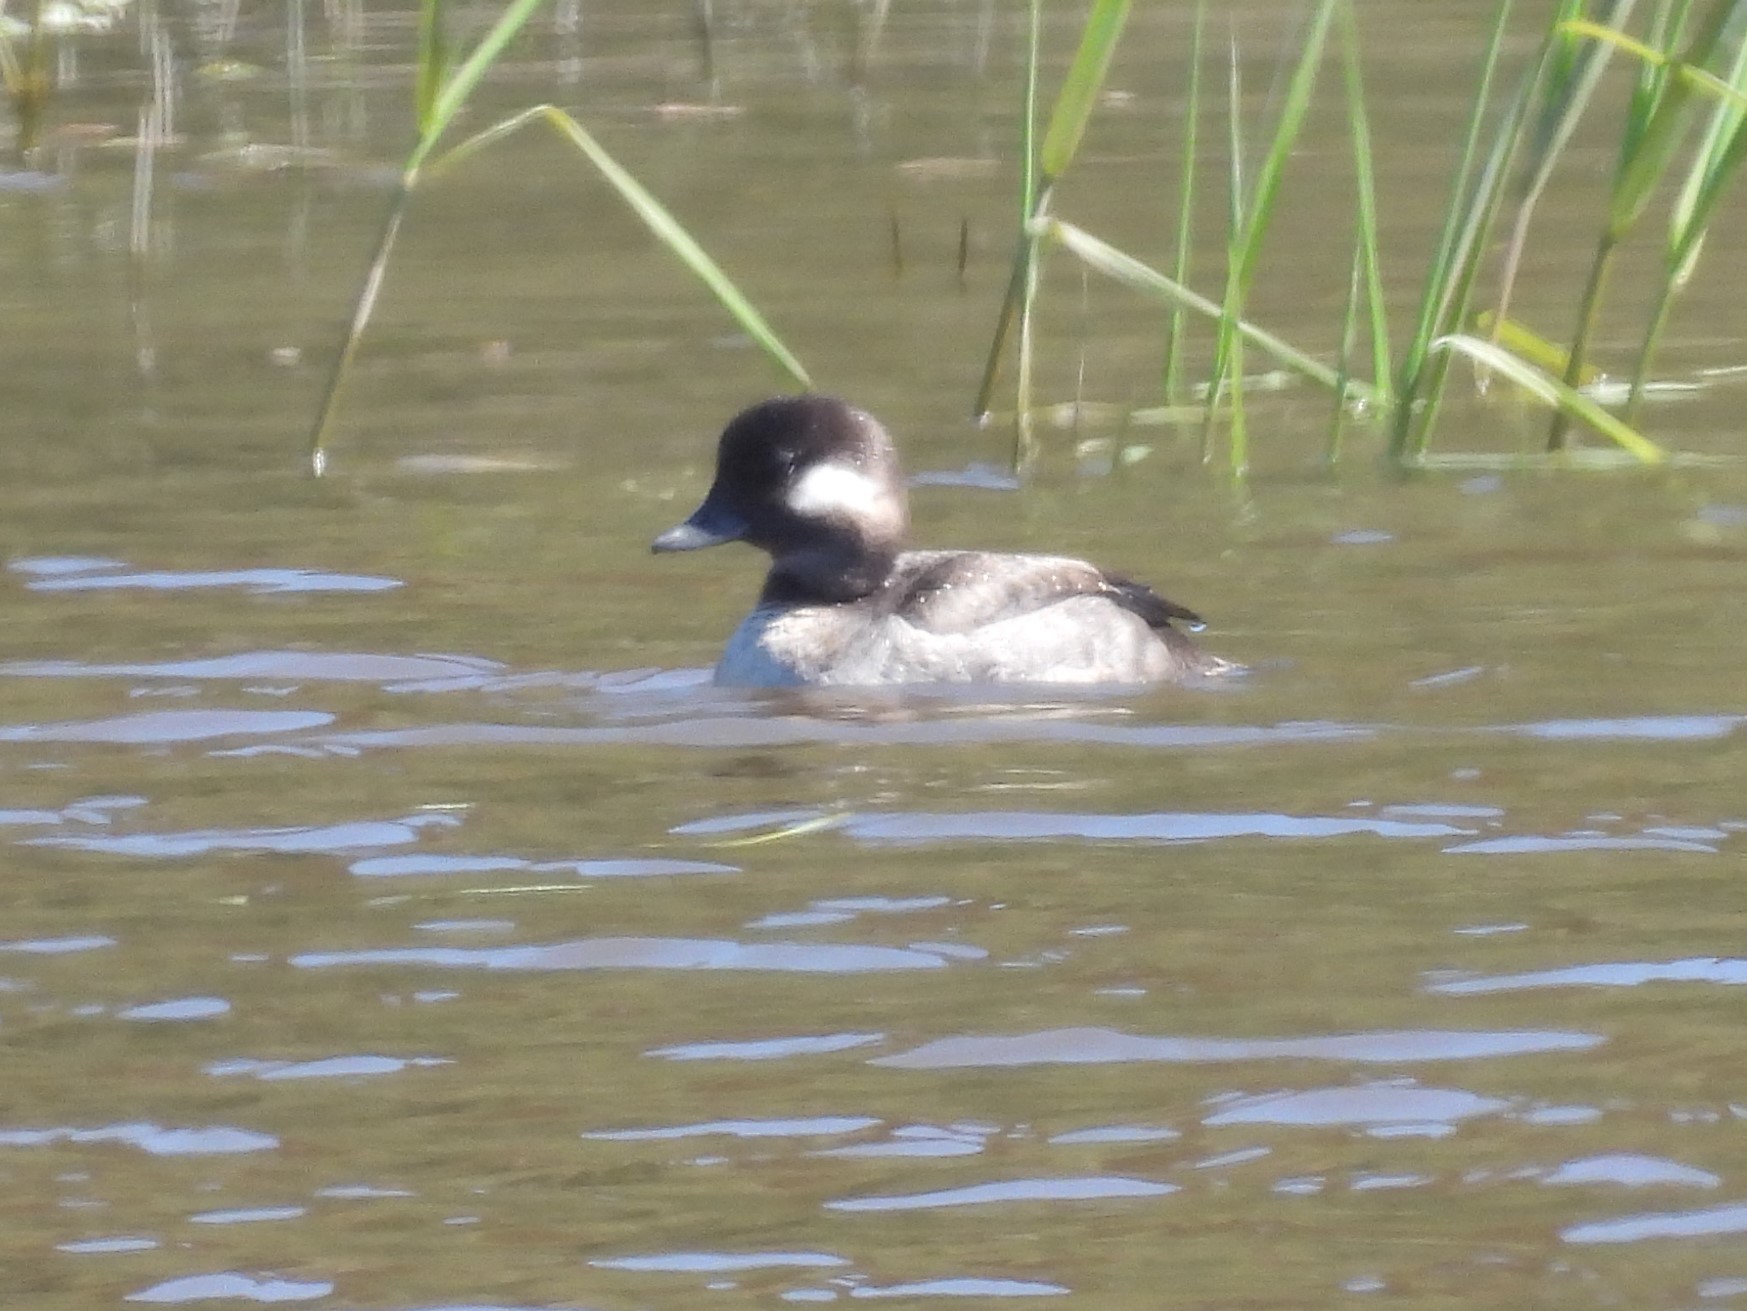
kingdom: Animalia
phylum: Chordata
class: Aves
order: Anseriformes
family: Anatidae
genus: Bucephala
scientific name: Bucephala albeola
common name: Bufflehead
